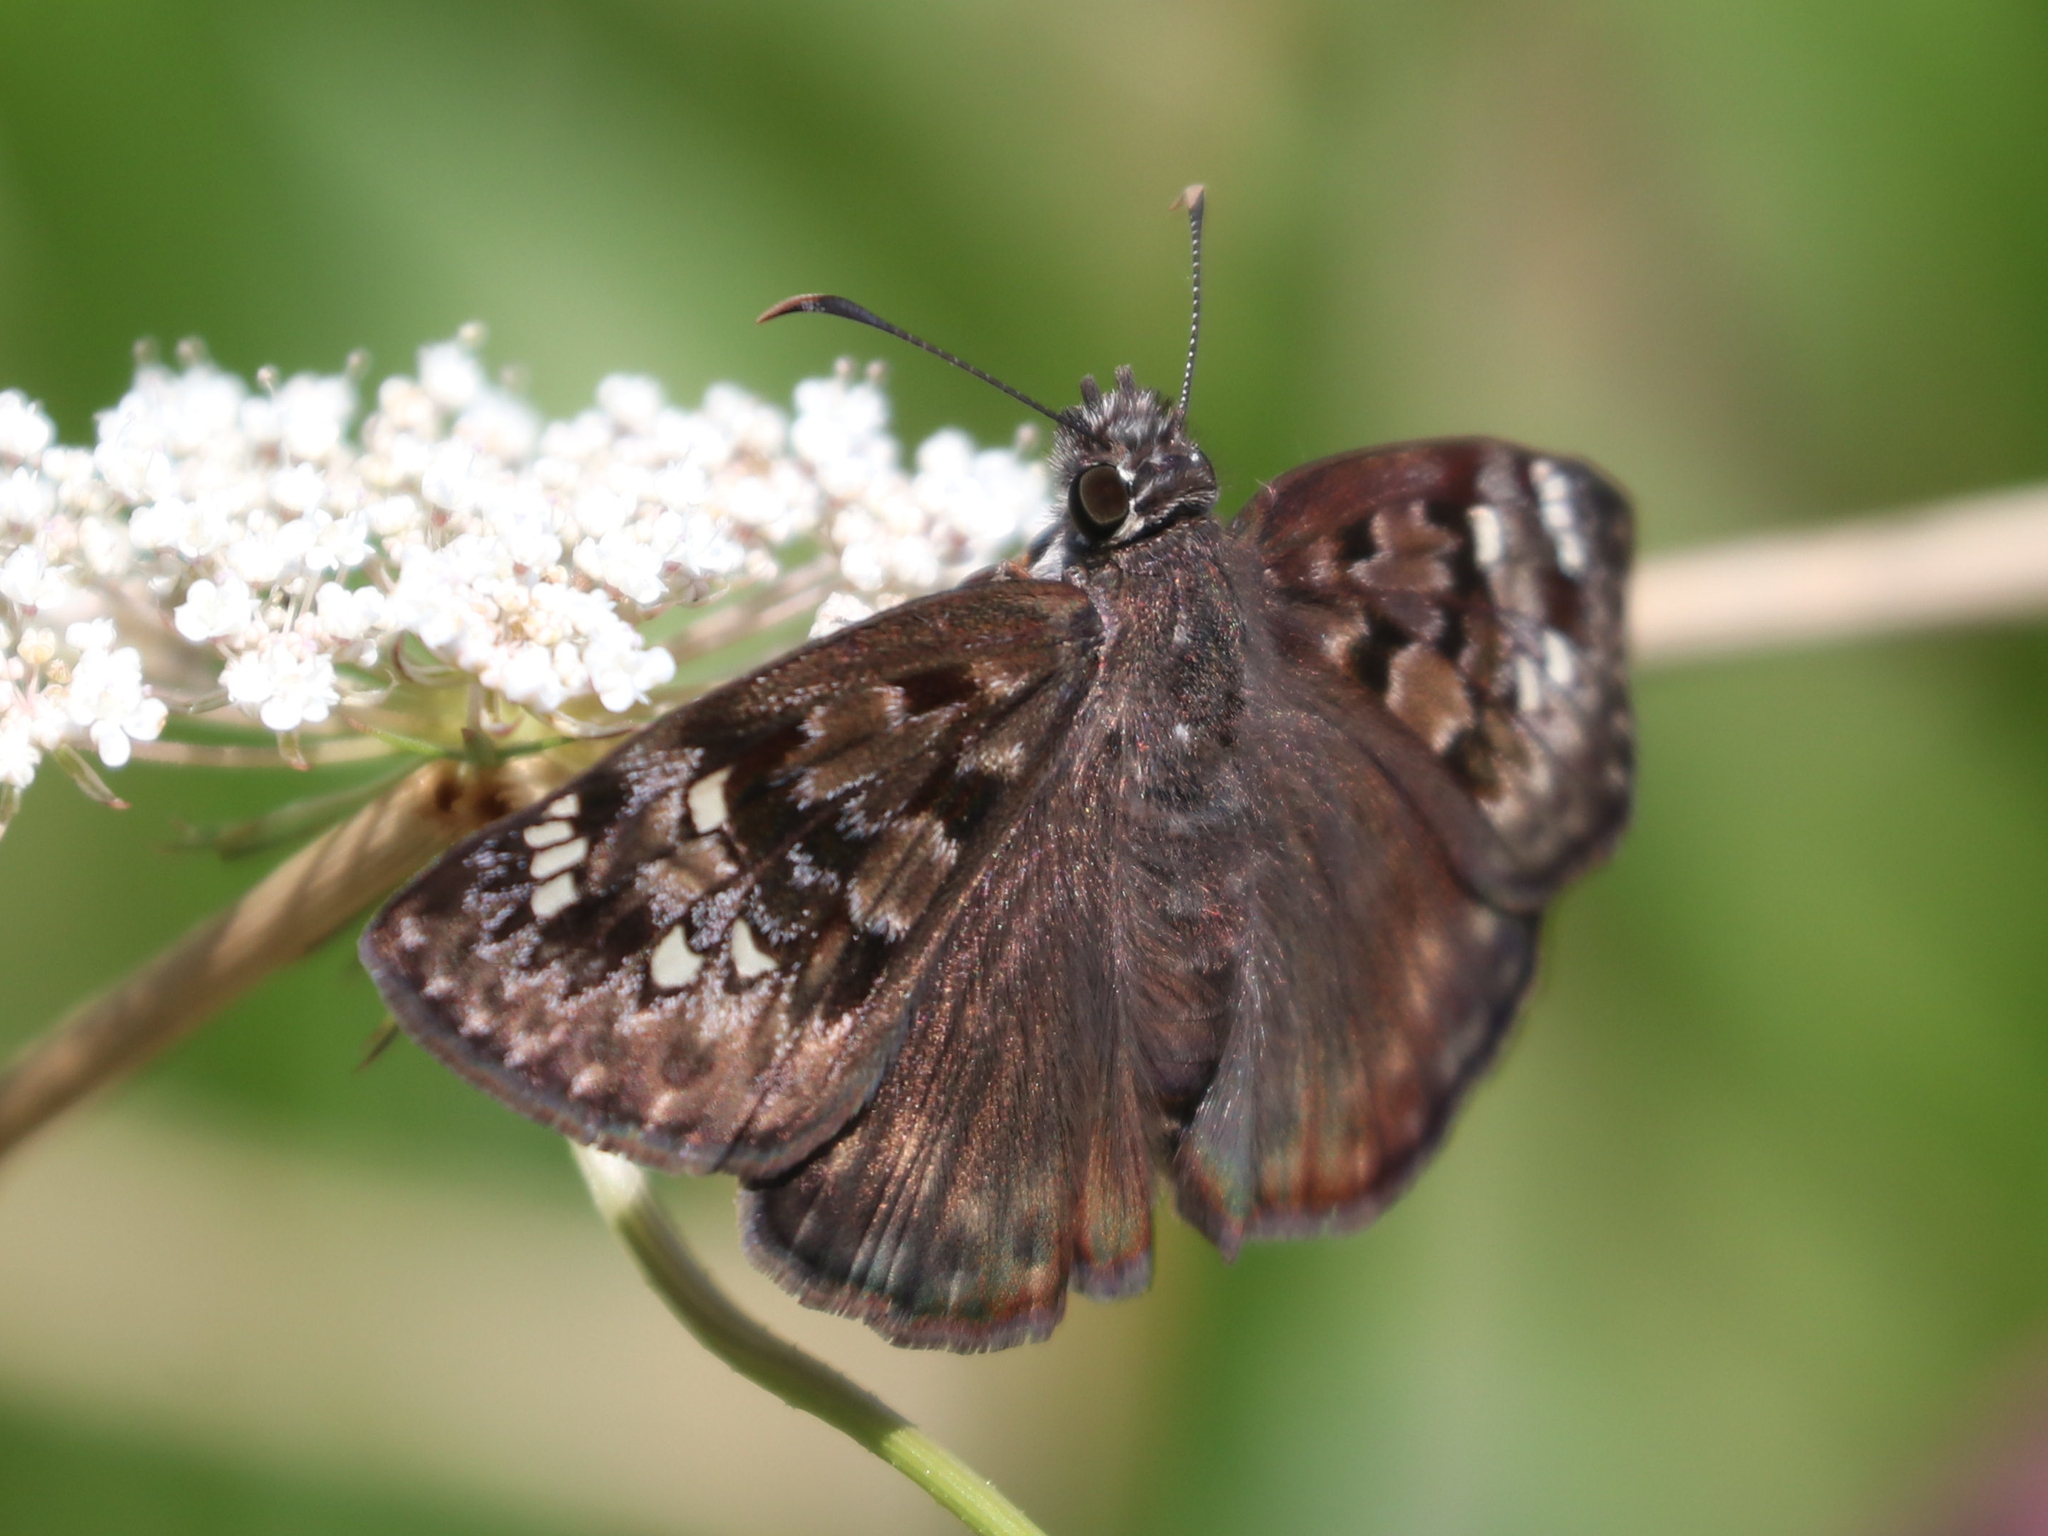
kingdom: Animalia
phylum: Arthropoda
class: Insecta
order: Lepidoptera
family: Hesperiidae
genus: Erynnis
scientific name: Erynnis horatius
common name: Horace's duskywing
